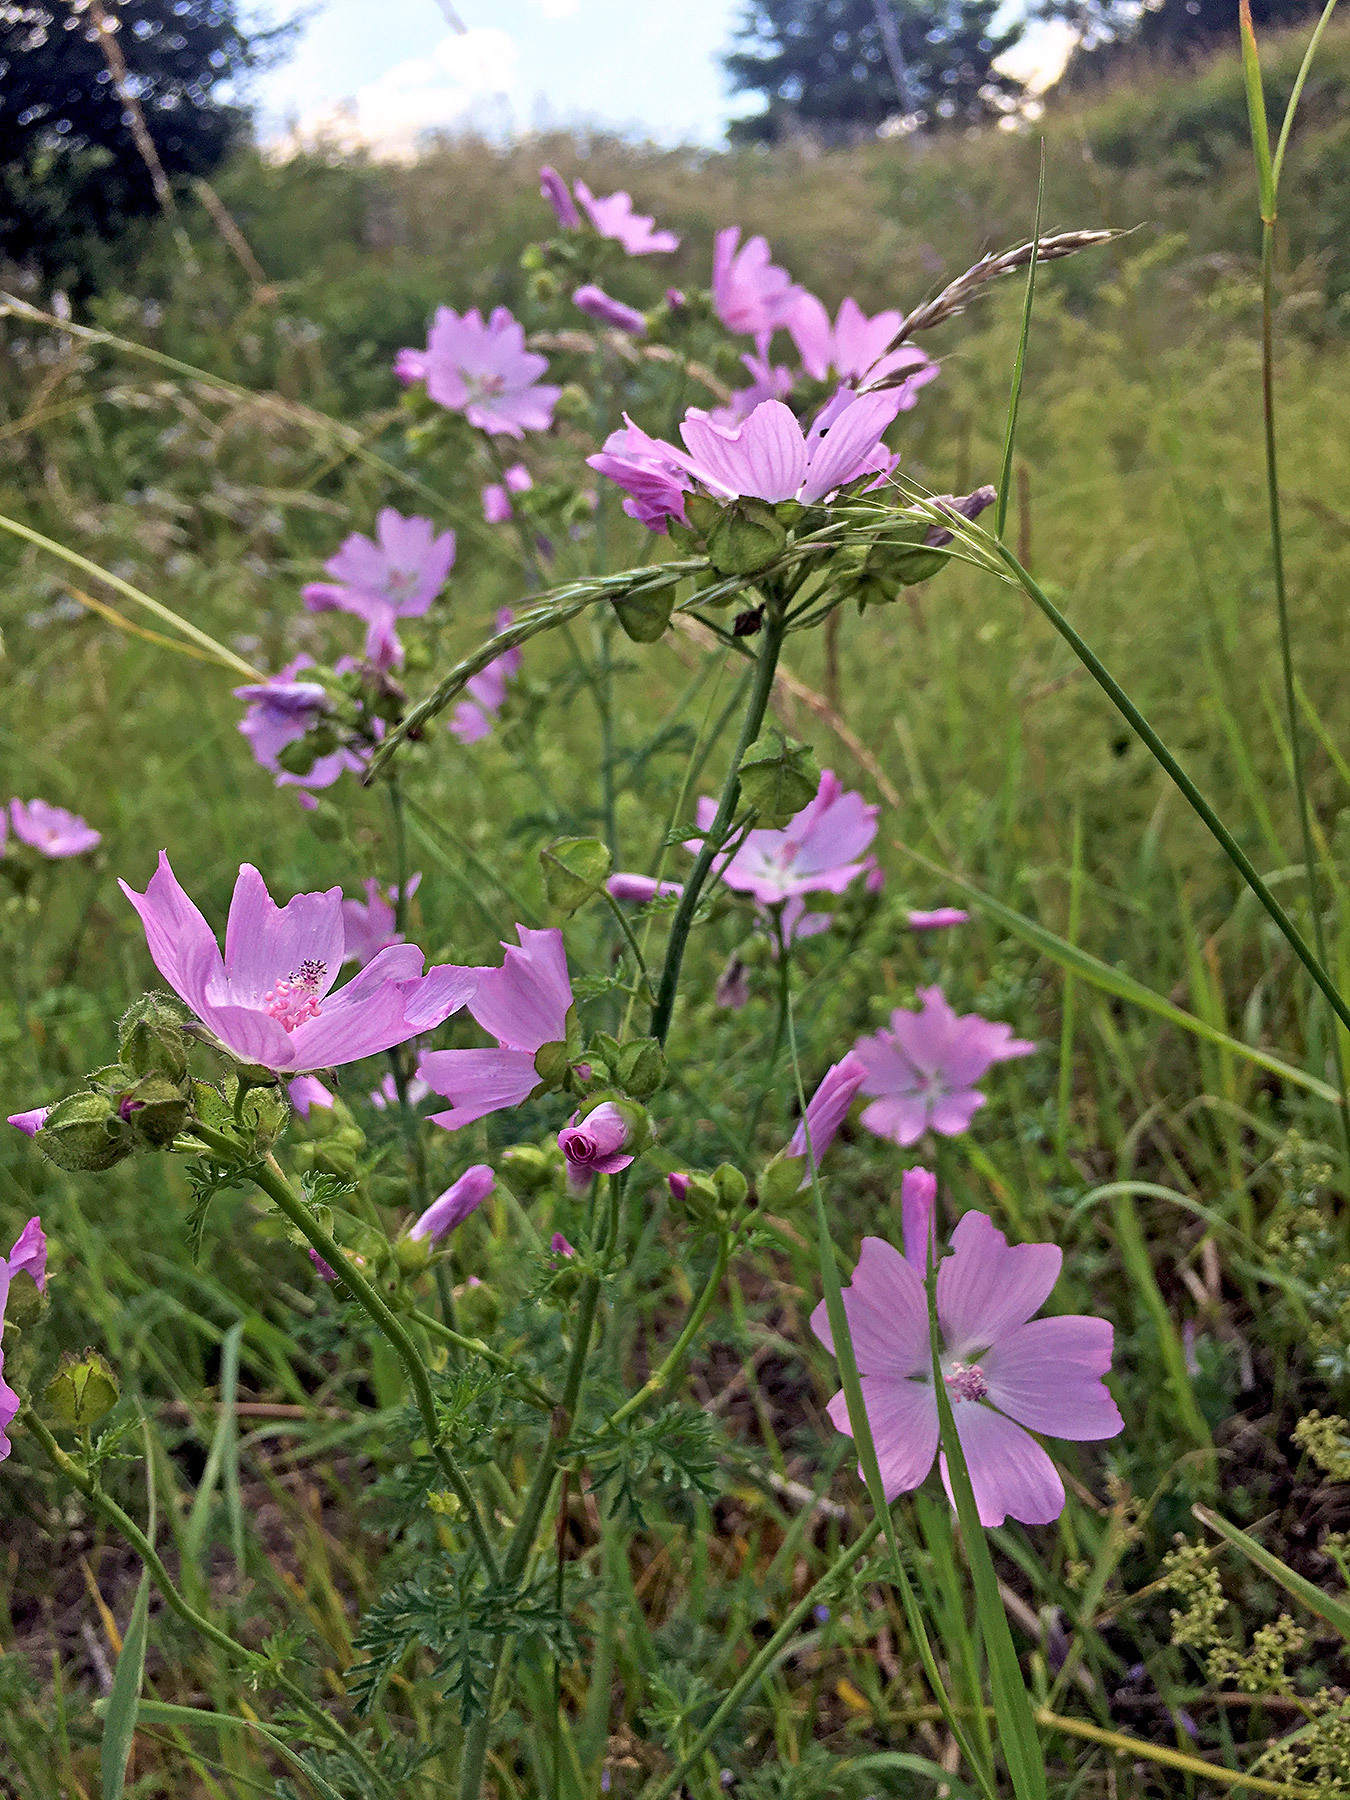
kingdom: Plantae
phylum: Tracheophyta
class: Magnoliopsida
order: Malvales
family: Malvaceae
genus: Malva
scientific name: Malva moschata
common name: Musk mallow
